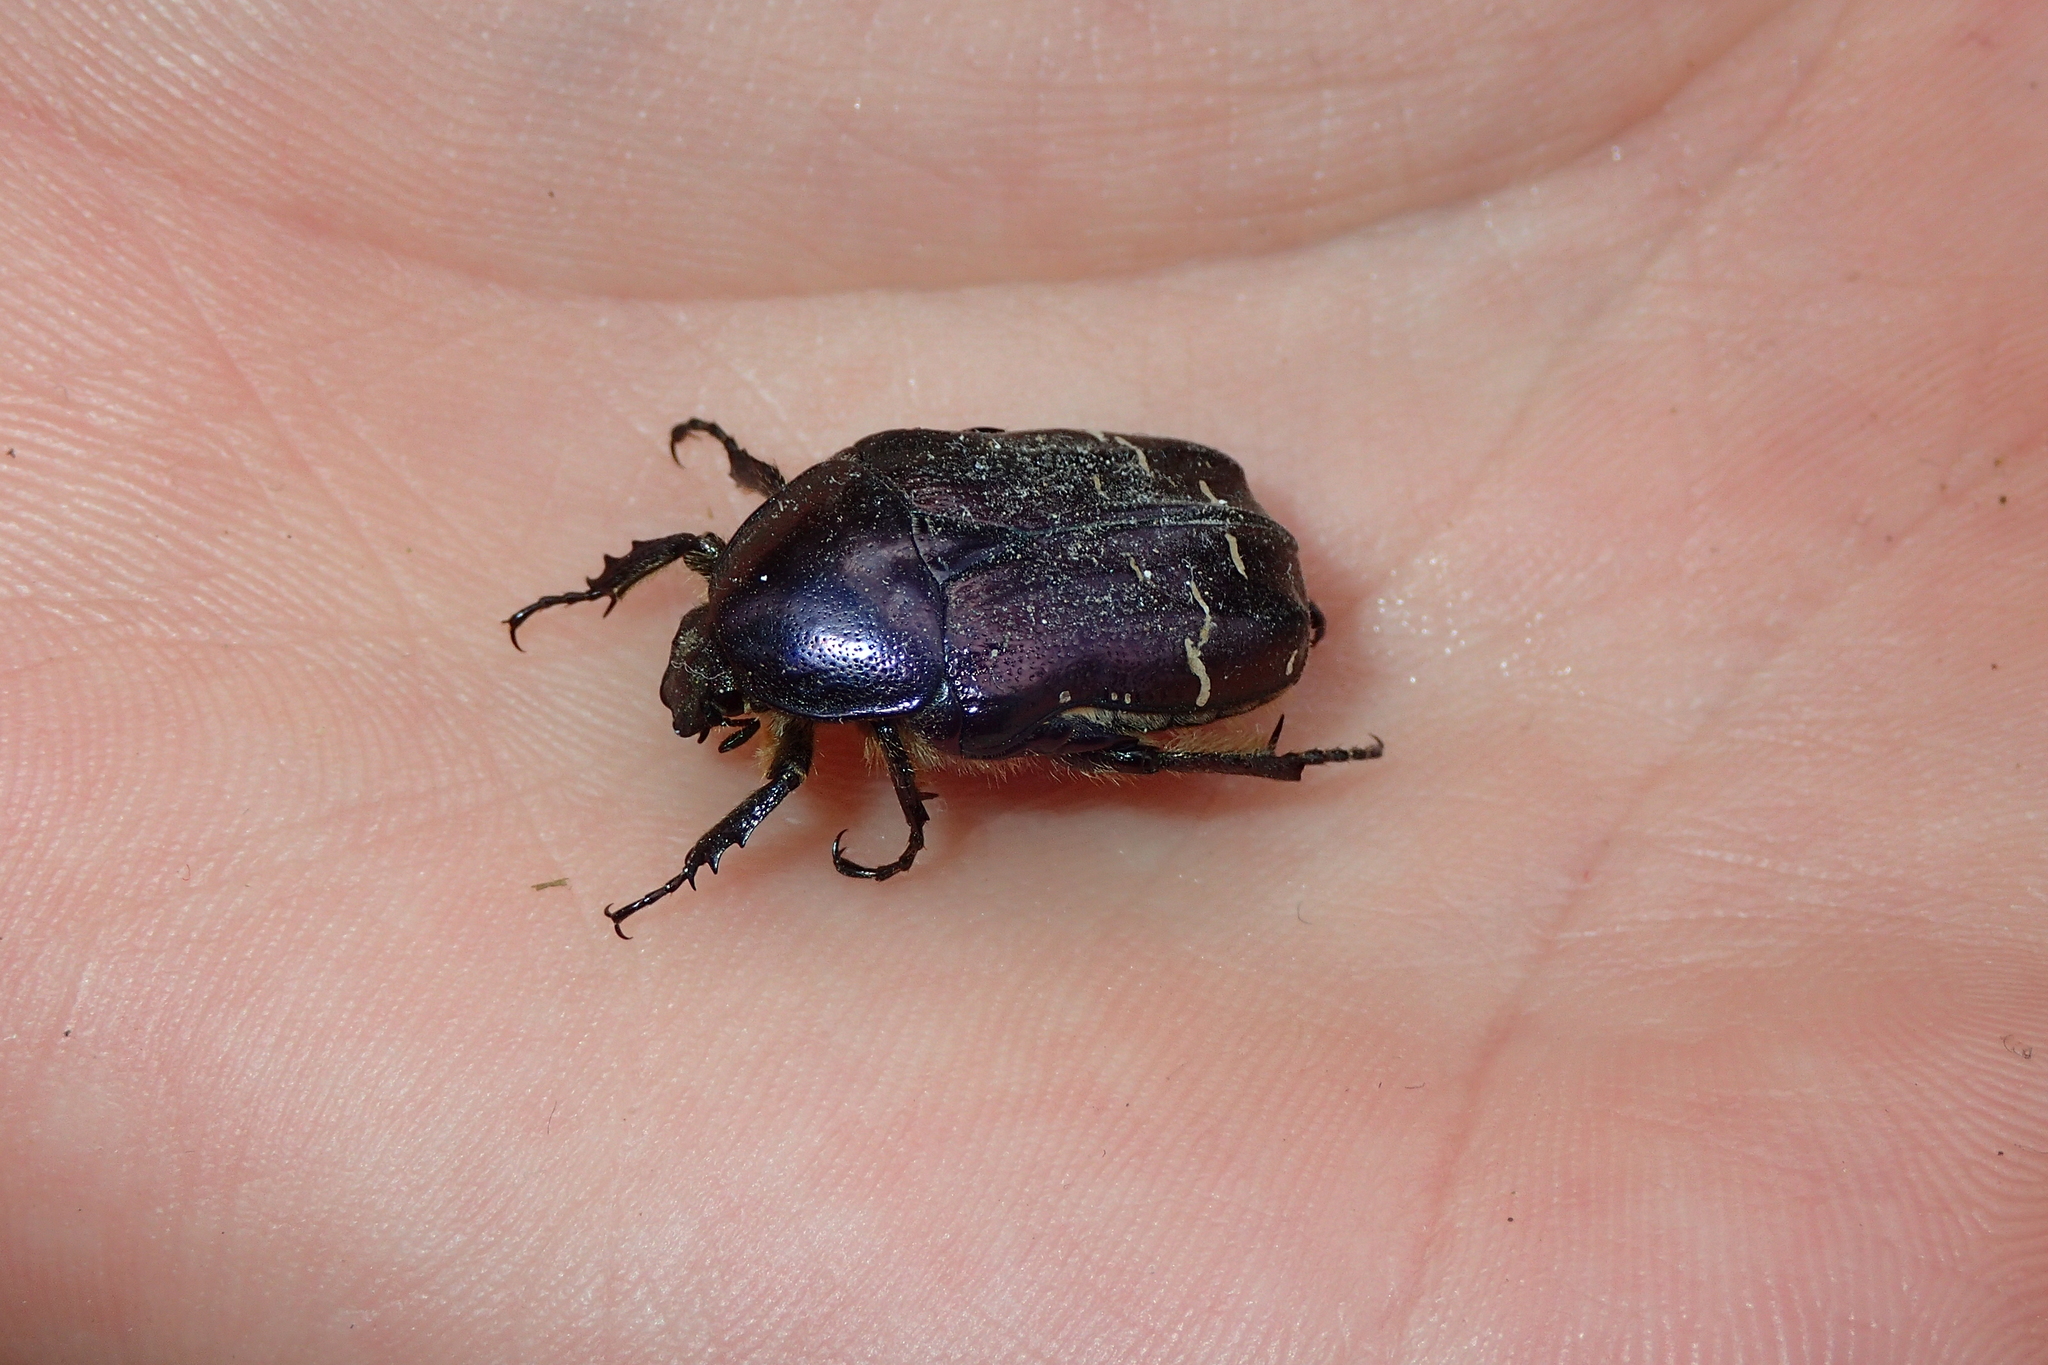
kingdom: Animalia
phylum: Arthropoda
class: Insecta
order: Coleoptera
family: Scarabaeidae
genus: Cetonia
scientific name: Cetonia aurata
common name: Rose chafer
